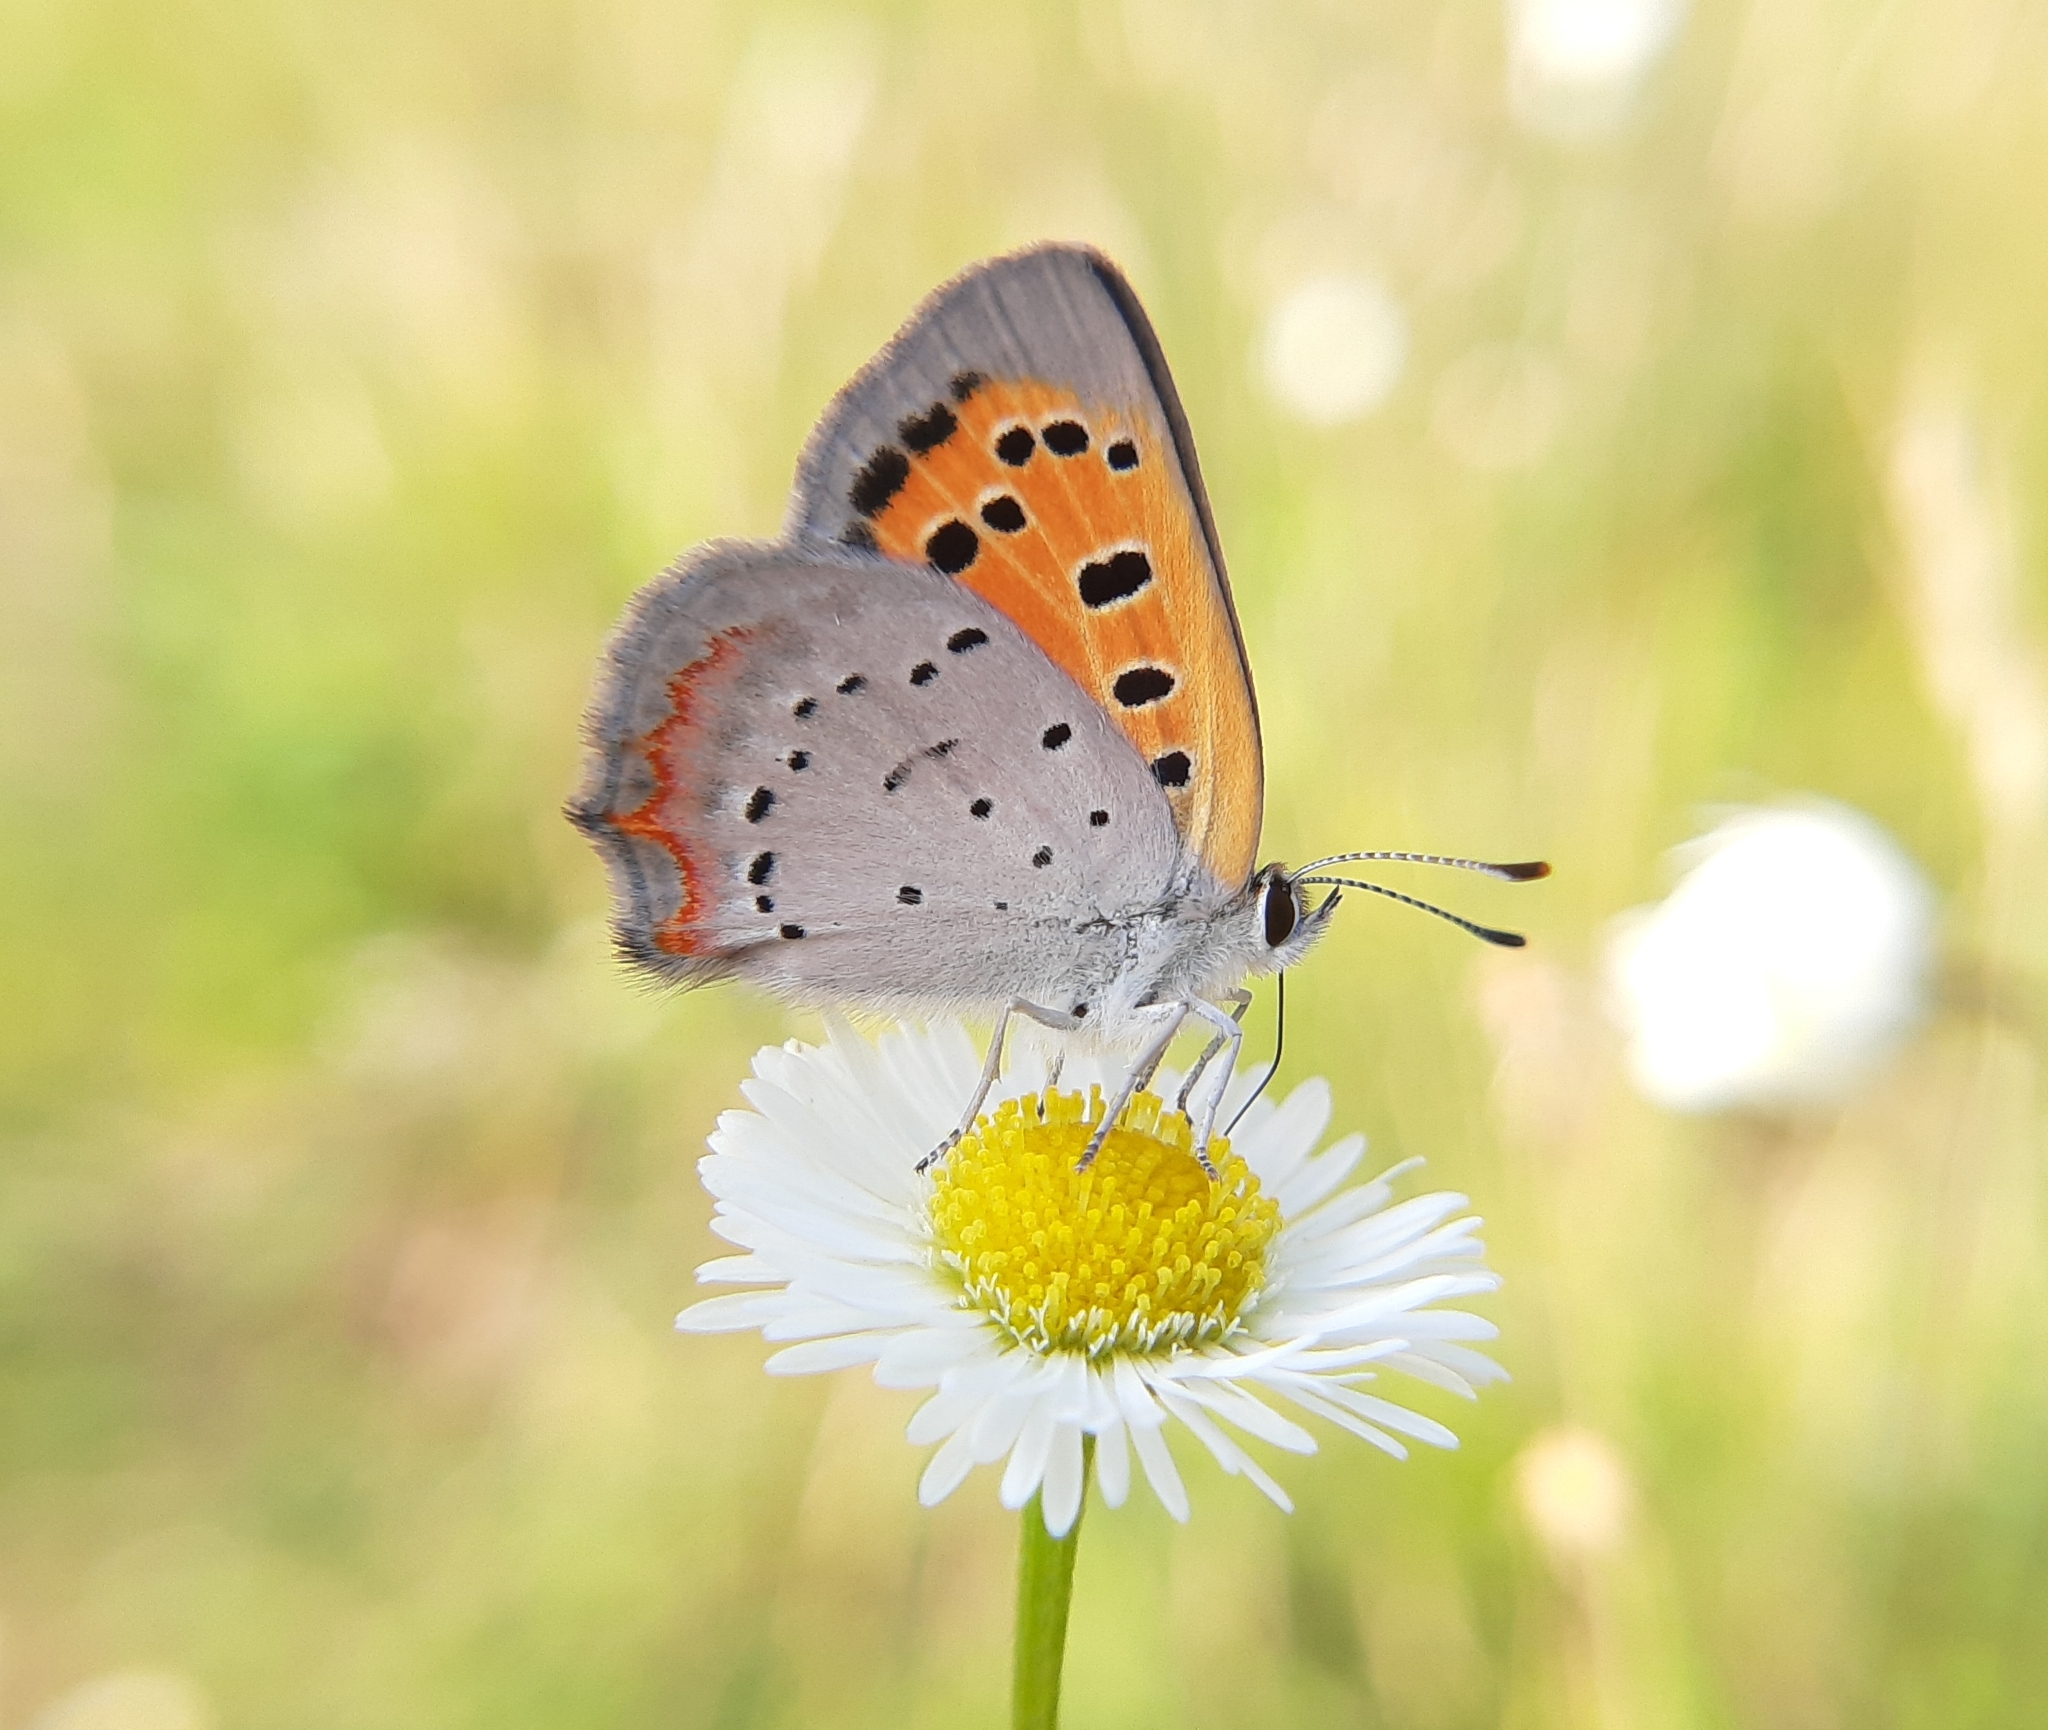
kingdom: Animalia
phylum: Arthropoda
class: Insecta
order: Lepidoptera
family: Lycaenidae
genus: Lycaena
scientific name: Lycaena hypophlaeas
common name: American copper
